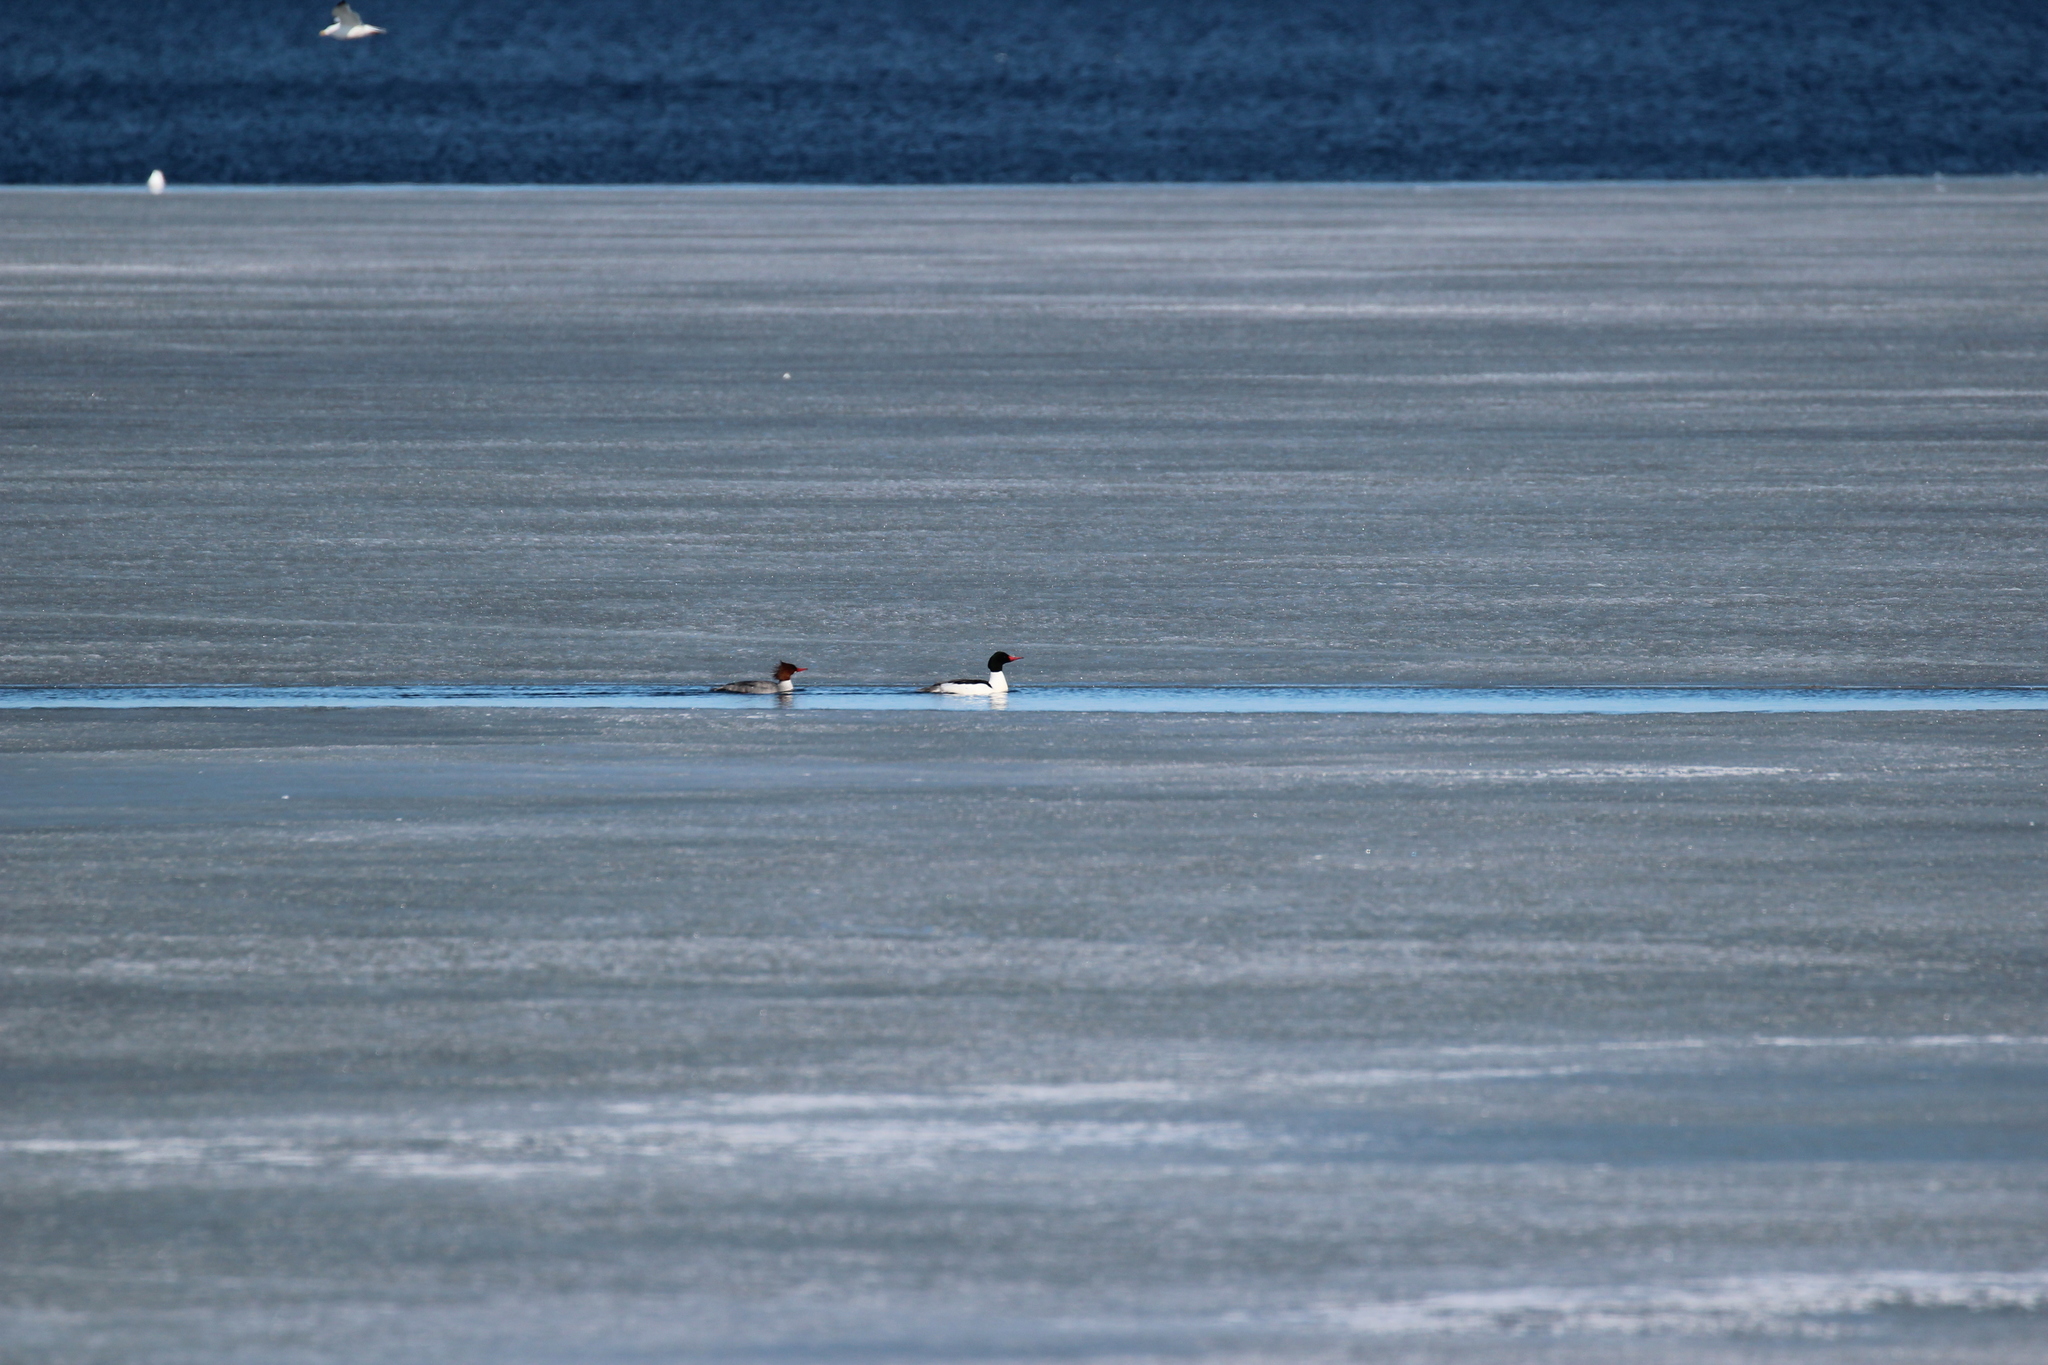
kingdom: Animalia
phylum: Chordata
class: Aves
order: Anseriformes
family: Anatidae
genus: Mergus
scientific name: Mergus merganser
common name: Common merganser
